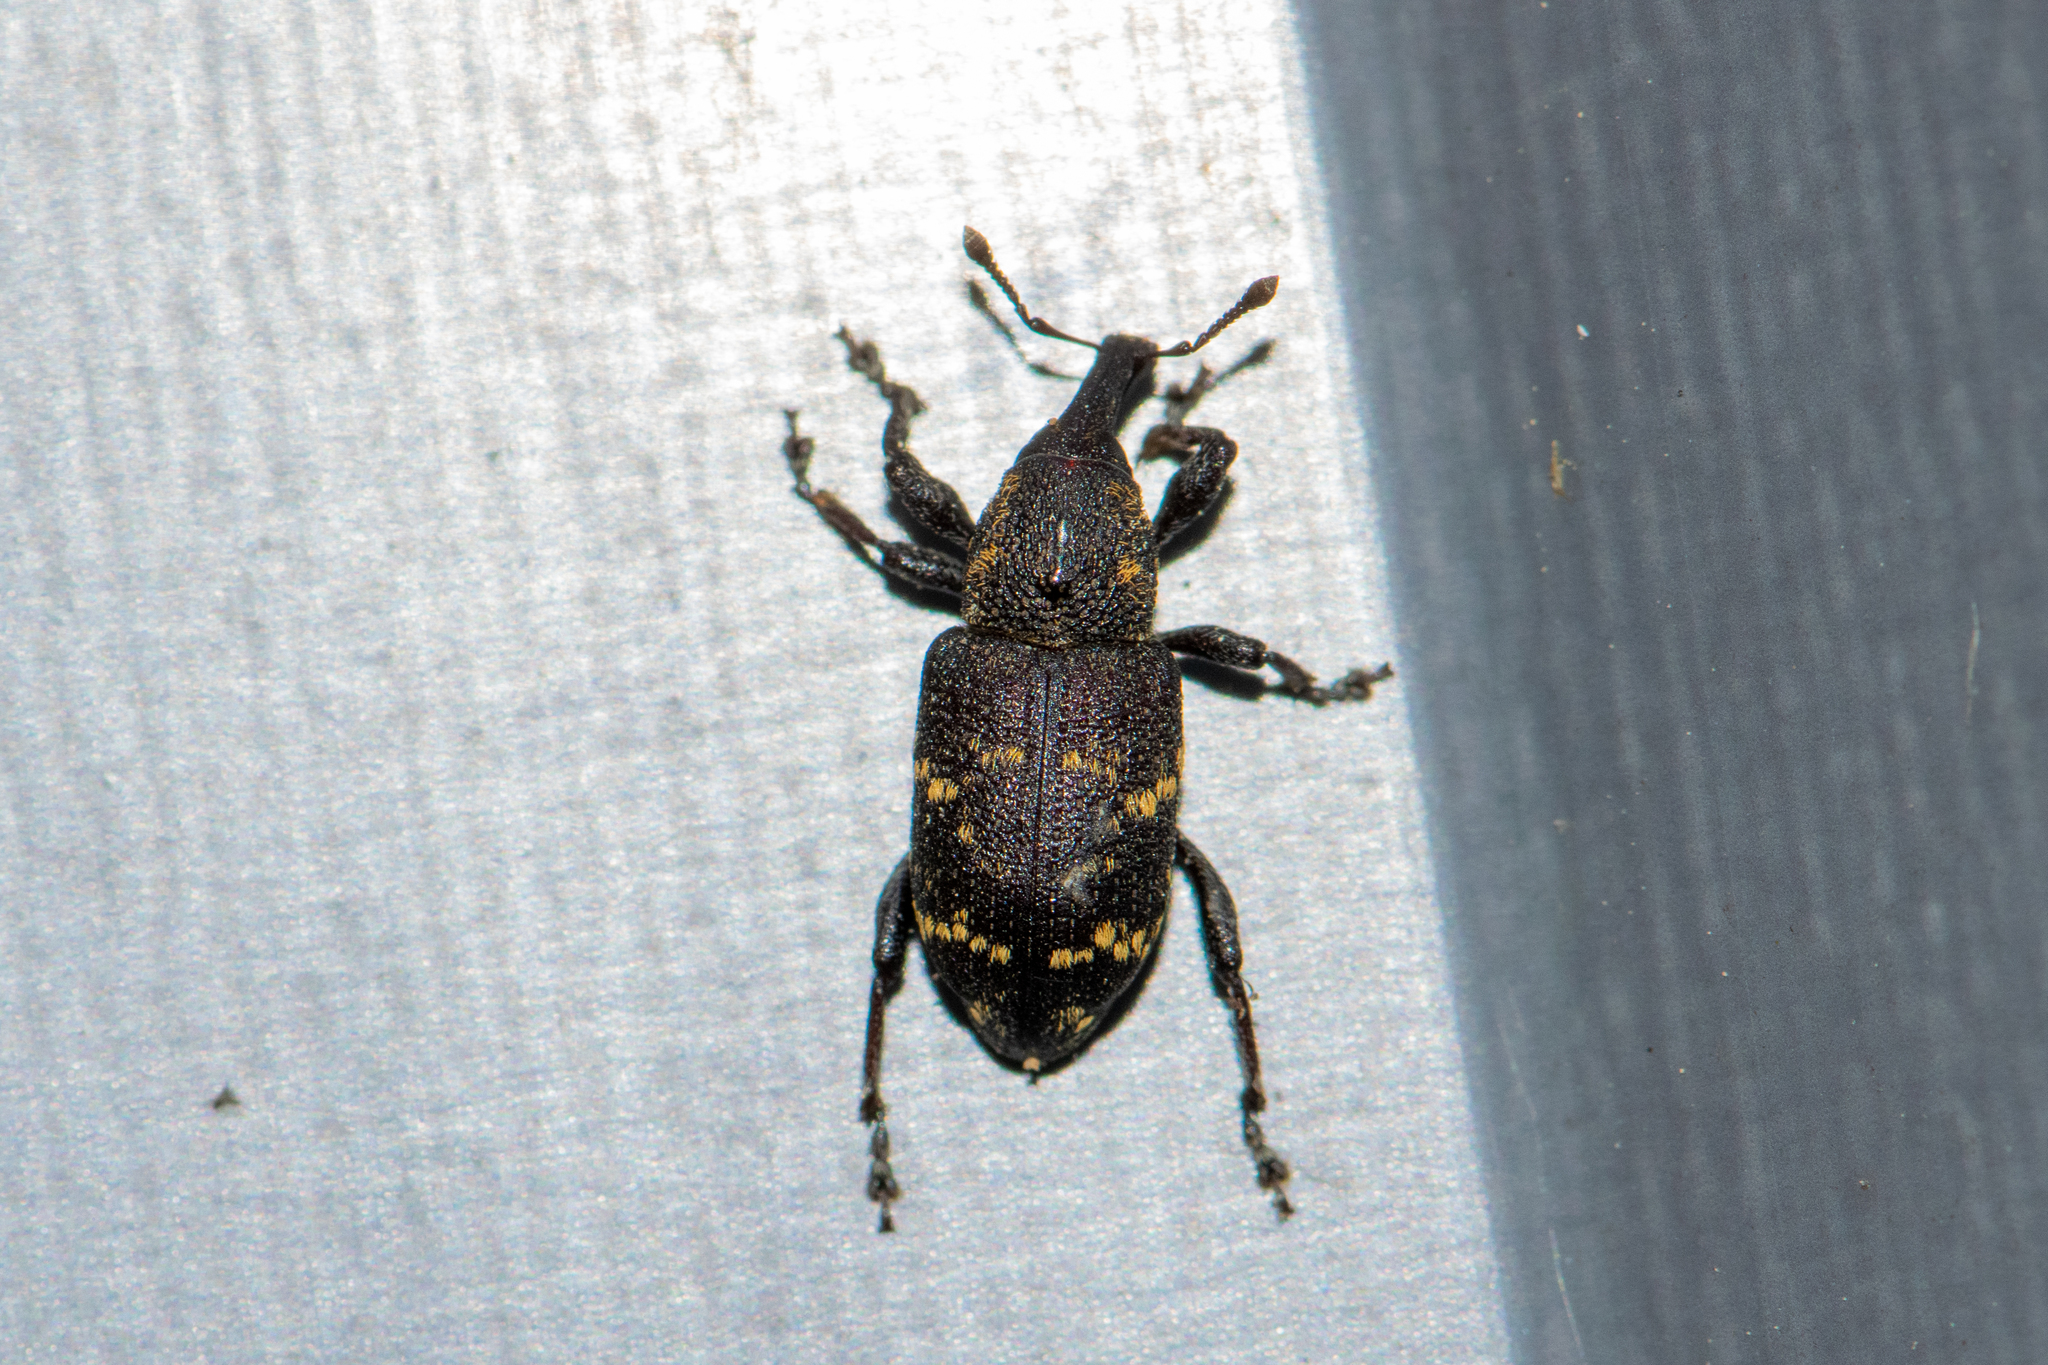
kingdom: Animalia
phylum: Arthropoda
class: Insecta
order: Coleoptera
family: Curculionidae
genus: Hylobius
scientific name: Hylobius abietis
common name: Large pine weevil
